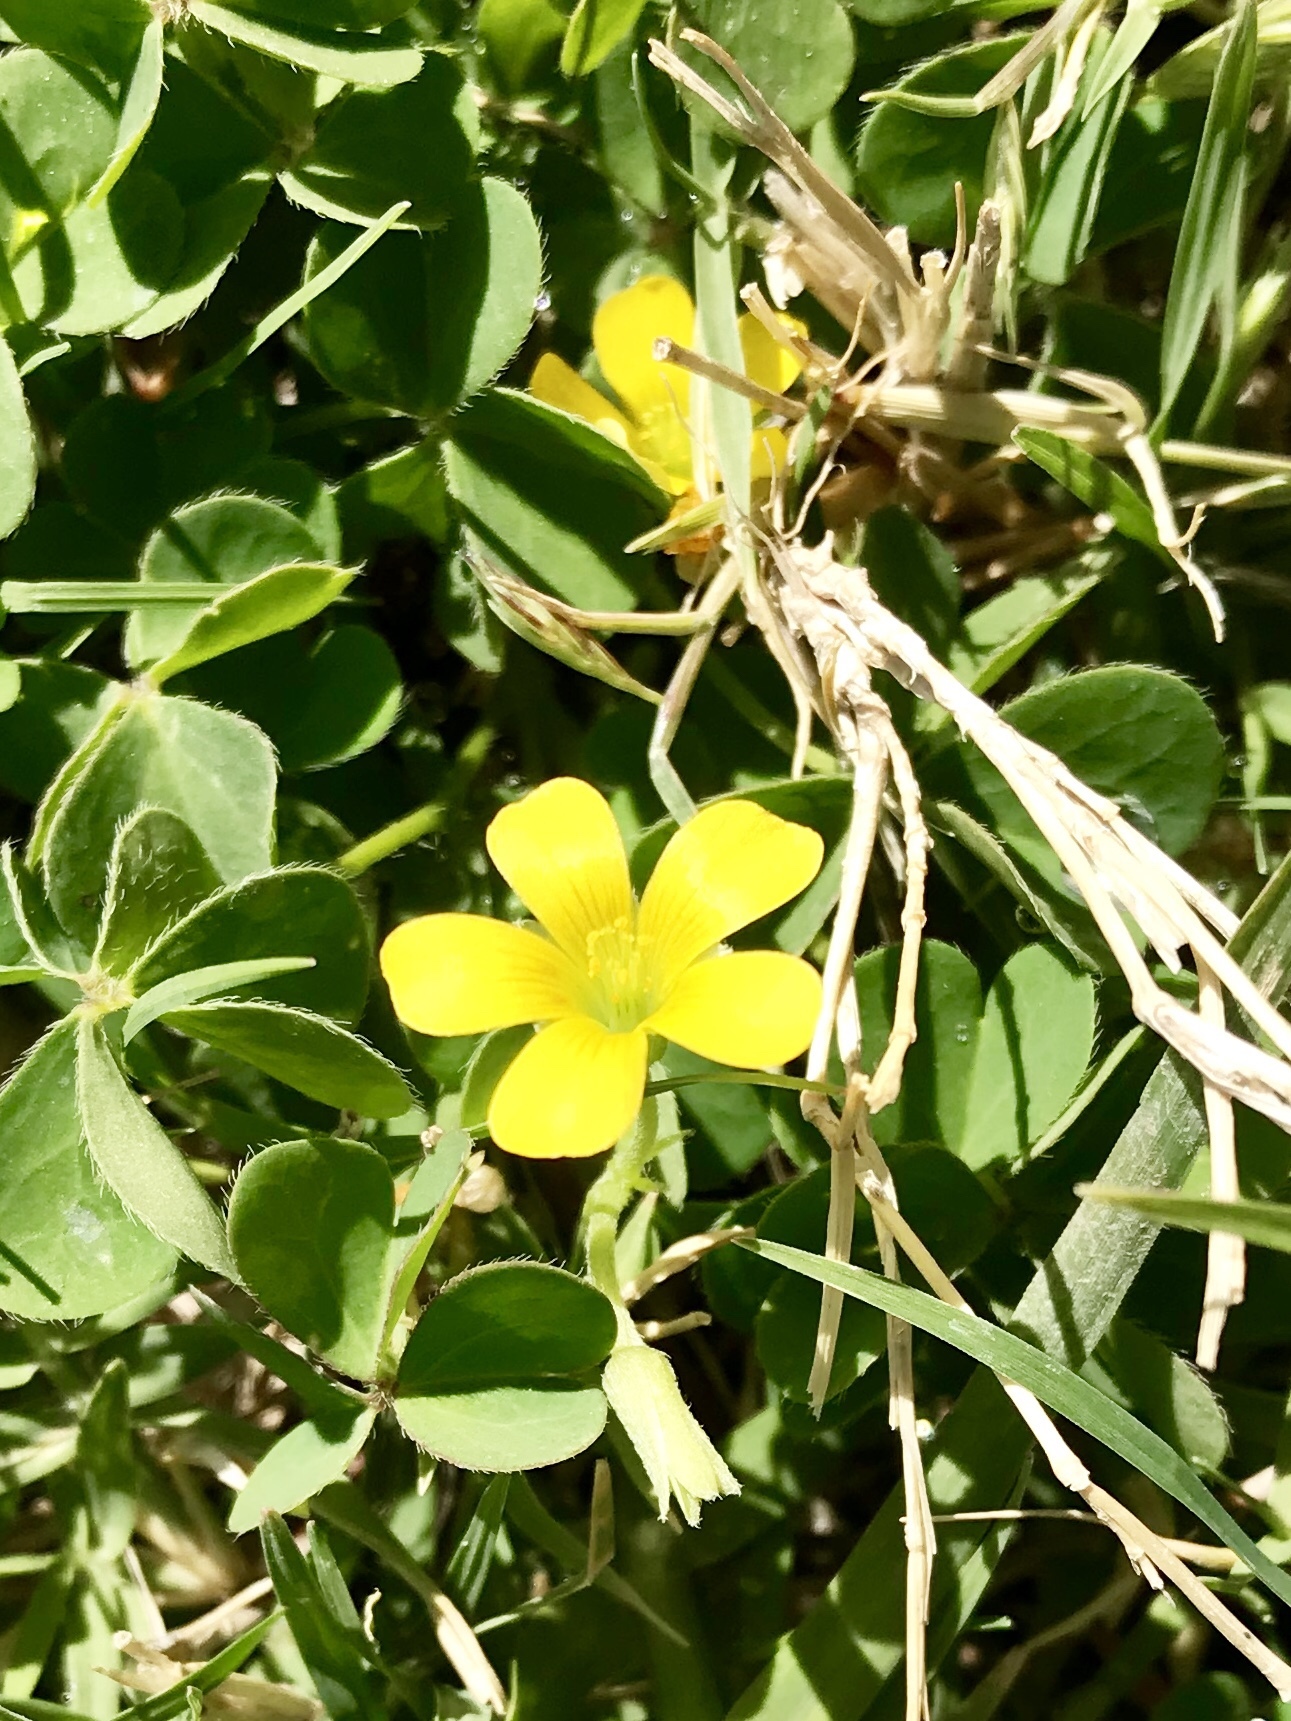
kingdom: Plantae
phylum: Tracheophyta
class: Magnoliopsida
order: Oxalidales
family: Oxalidaceae
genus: Oxalis
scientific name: Oxalis corniculata
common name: Procumbent yellow-sorrel
